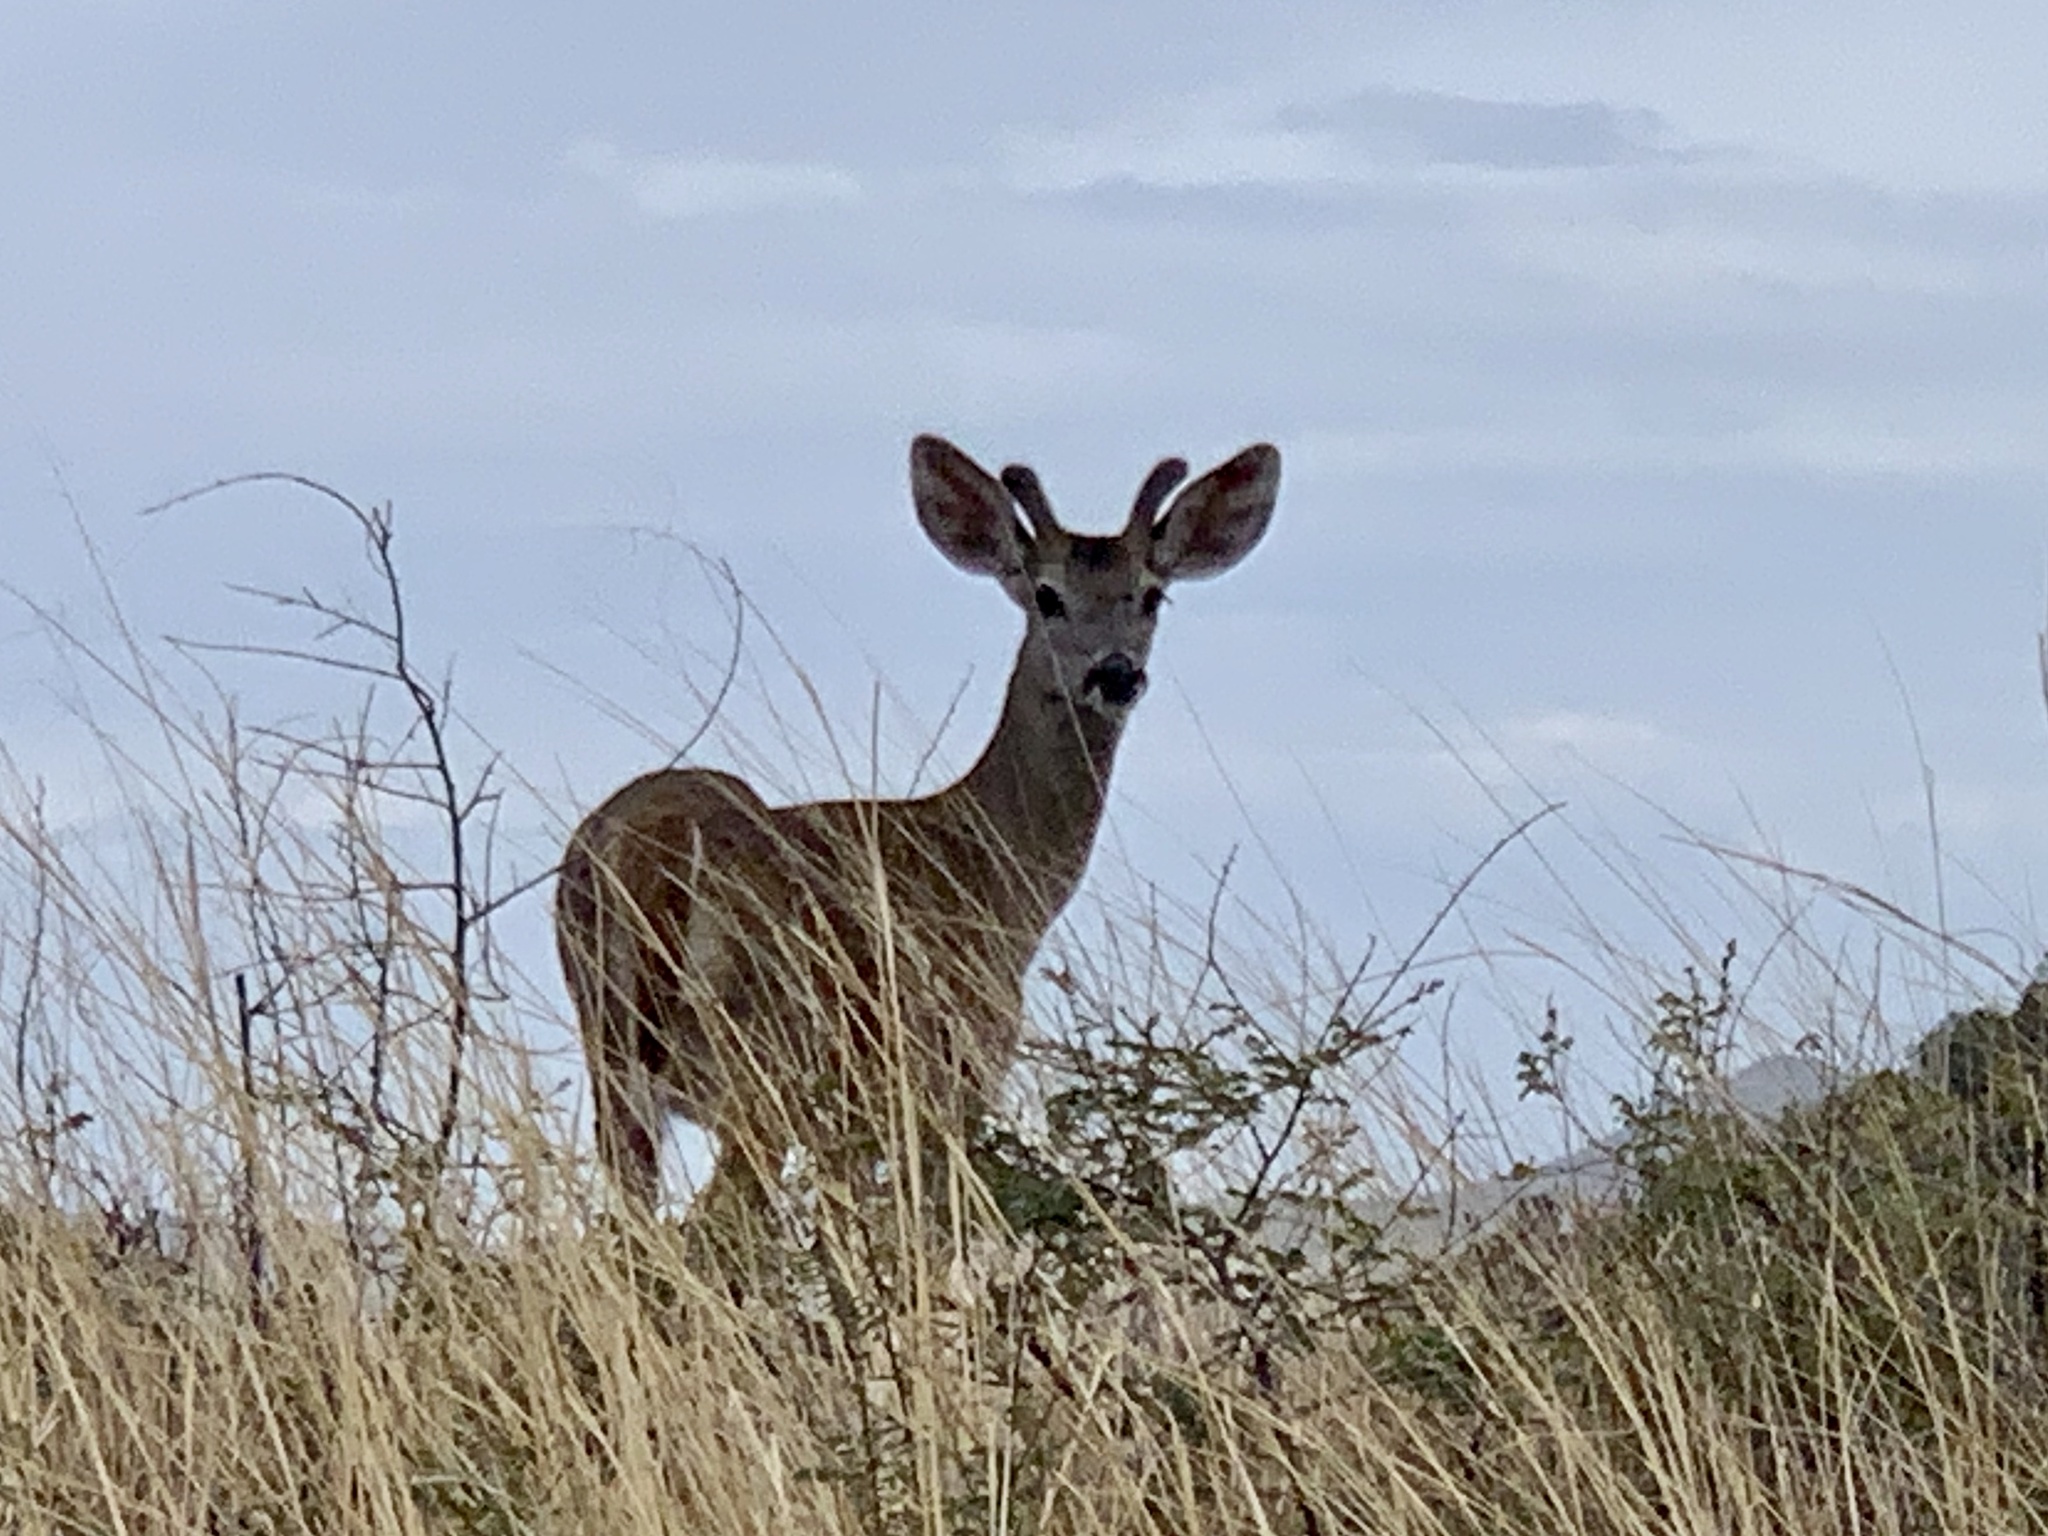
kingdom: Animalia
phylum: Chordata
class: Mammalia
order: Artiodactyla
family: Cervidae
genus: Odocoileus
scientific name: Odocoileus virginianus
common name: White-tailed deer
